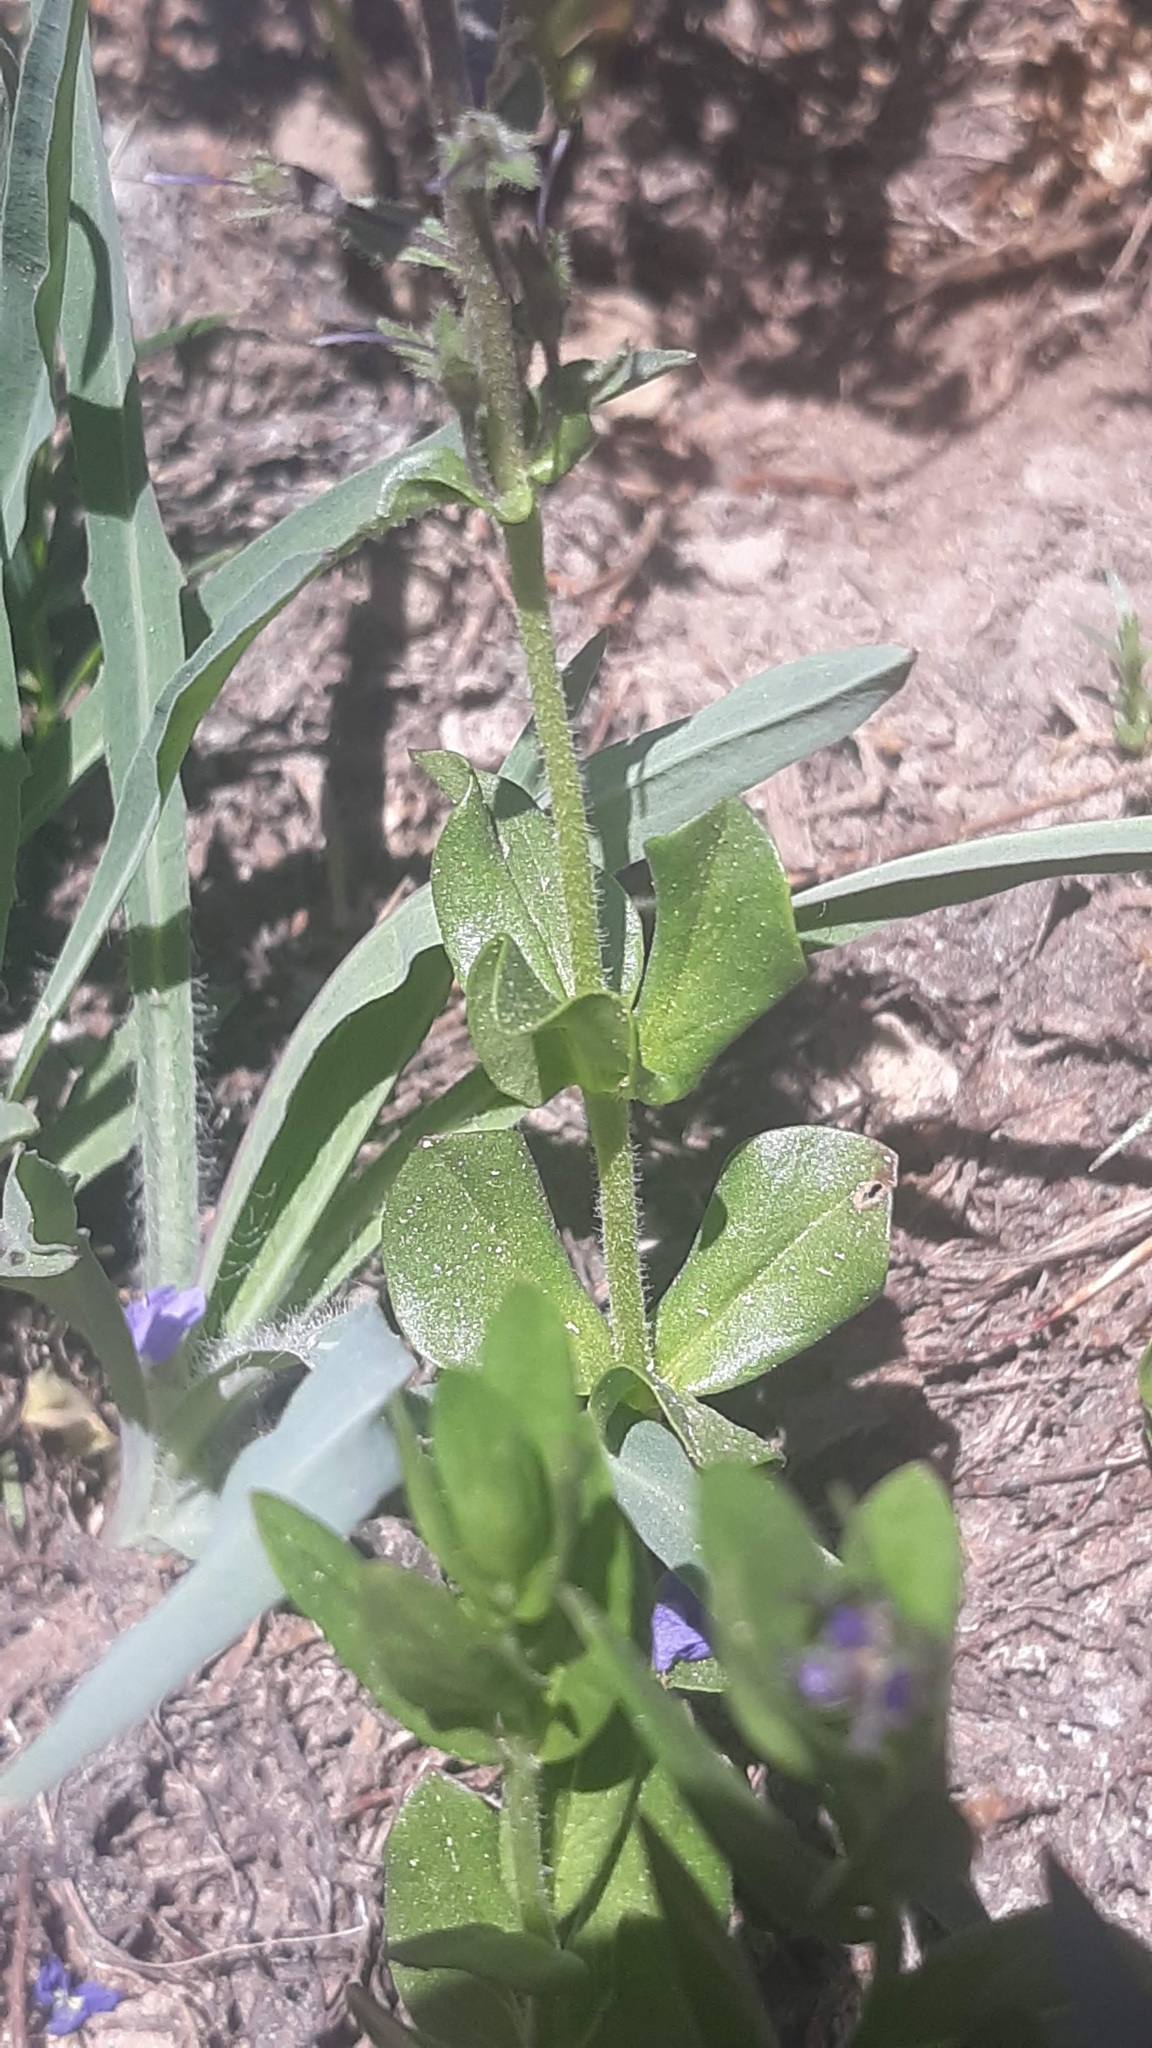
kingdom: Plantae
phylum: Tracheophyta
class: Magnoliopsida
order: Lamiales
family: Plantaginaceae
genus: Veronica
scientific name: Veronica cusickii
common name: Cusick's speedwell
